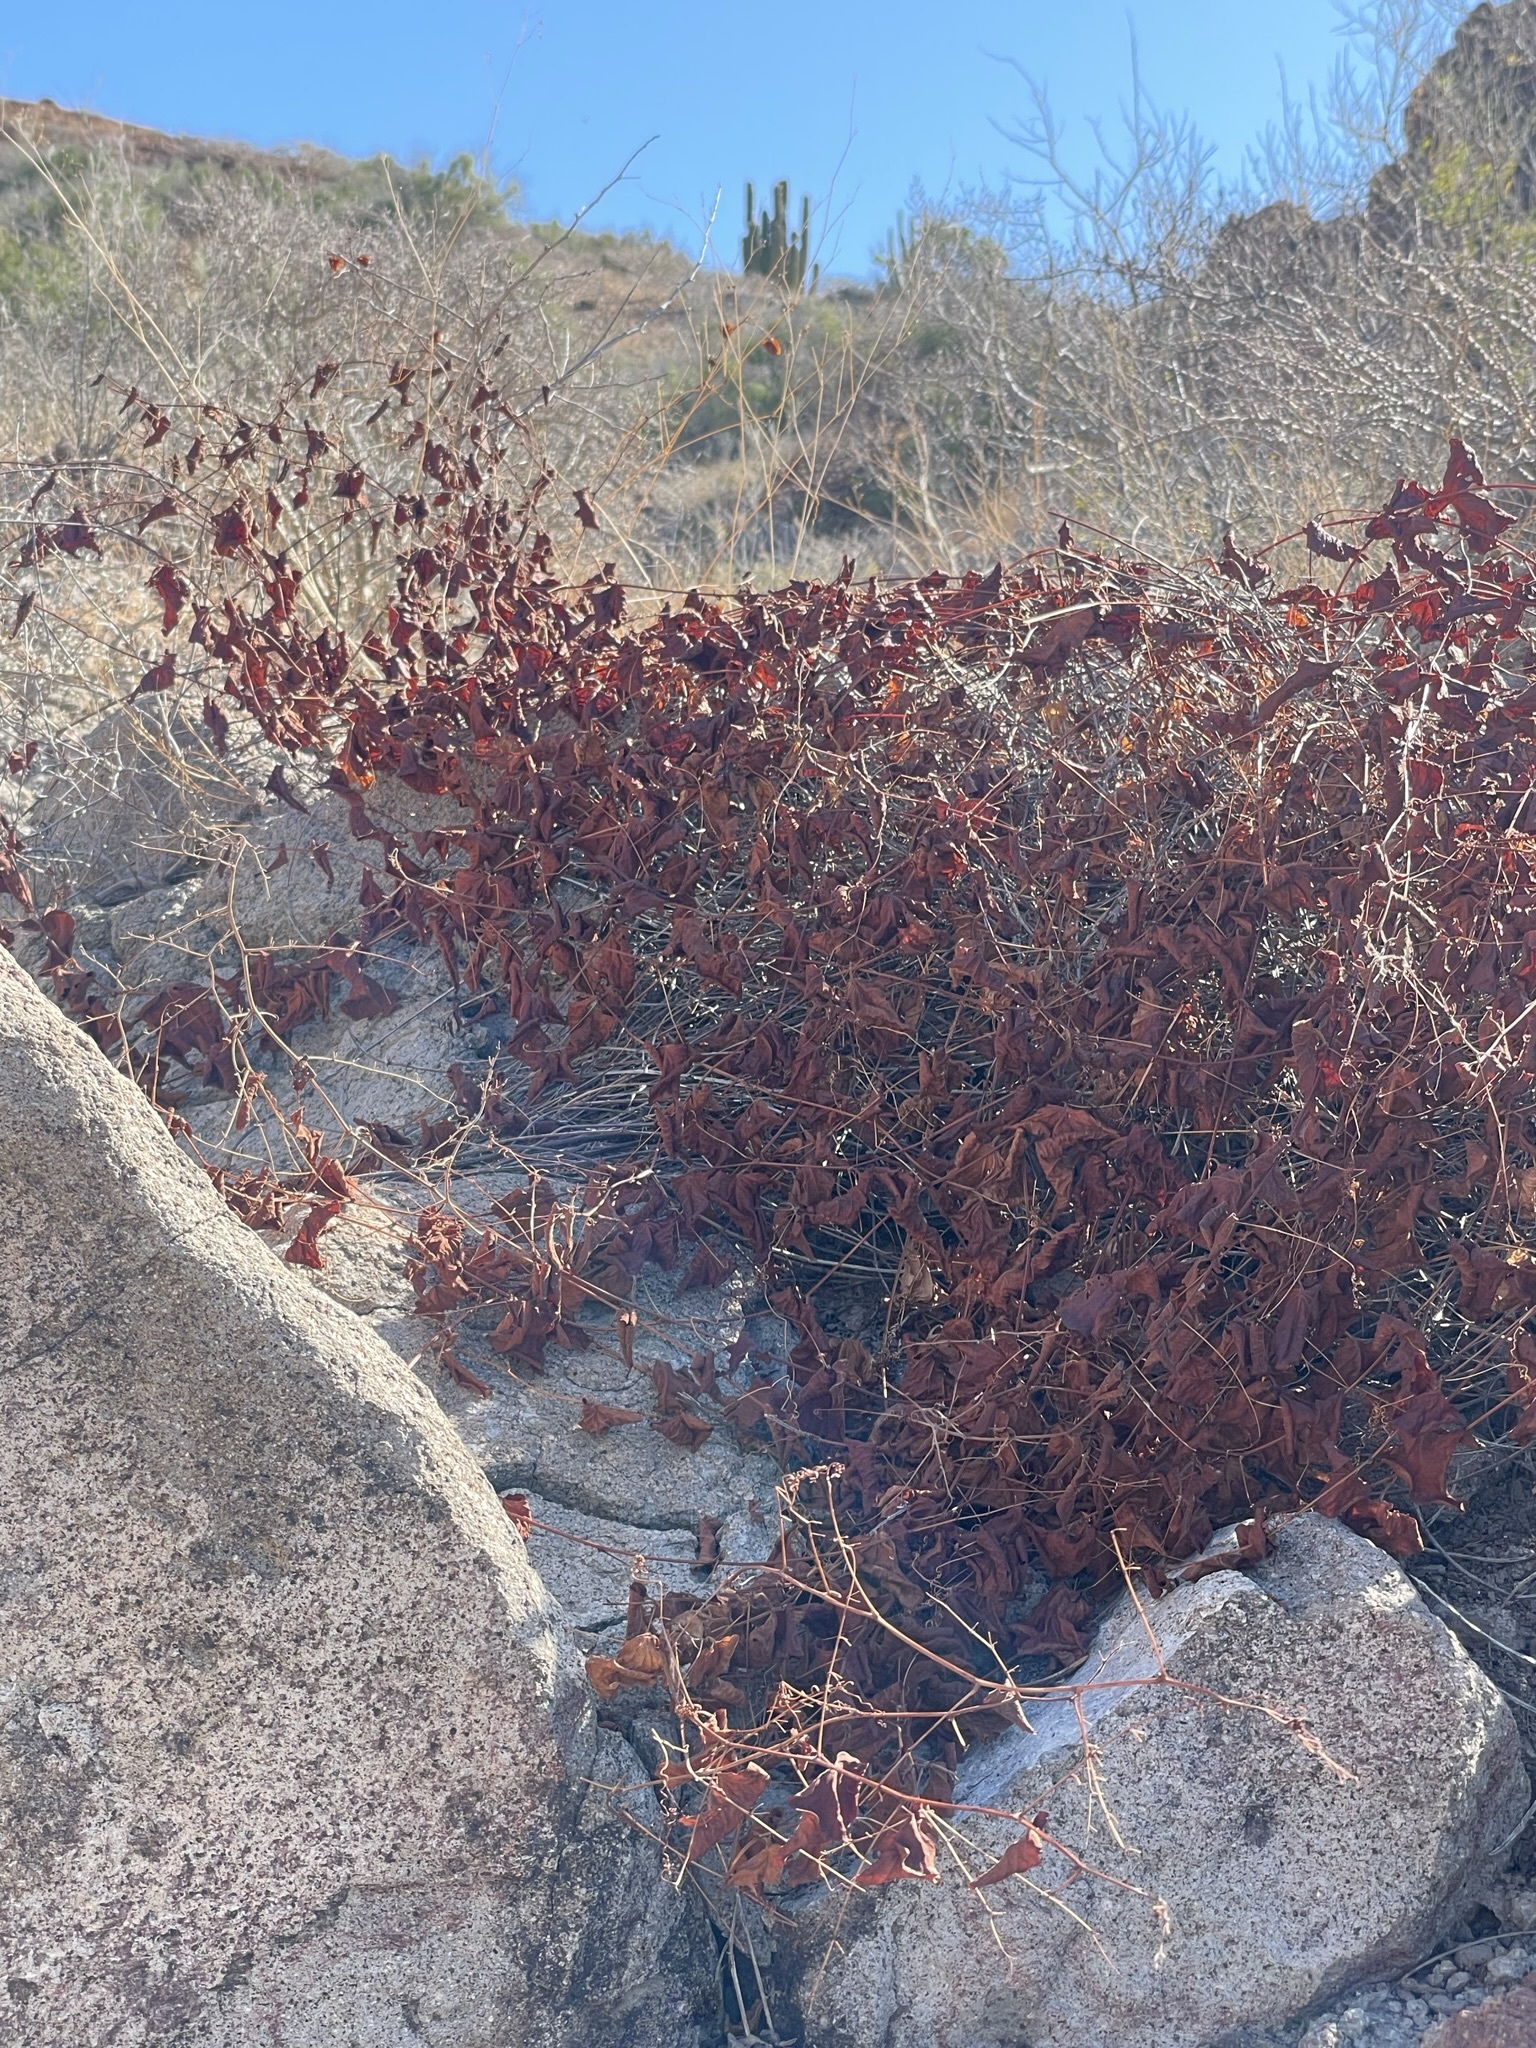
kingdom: Plantae
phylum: Tracheophyta
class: Magnoliopsida
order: Caryophyllales
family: Polygonaceae
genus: Antigonon
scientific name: Antigonon leptopus
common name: Coral vine
